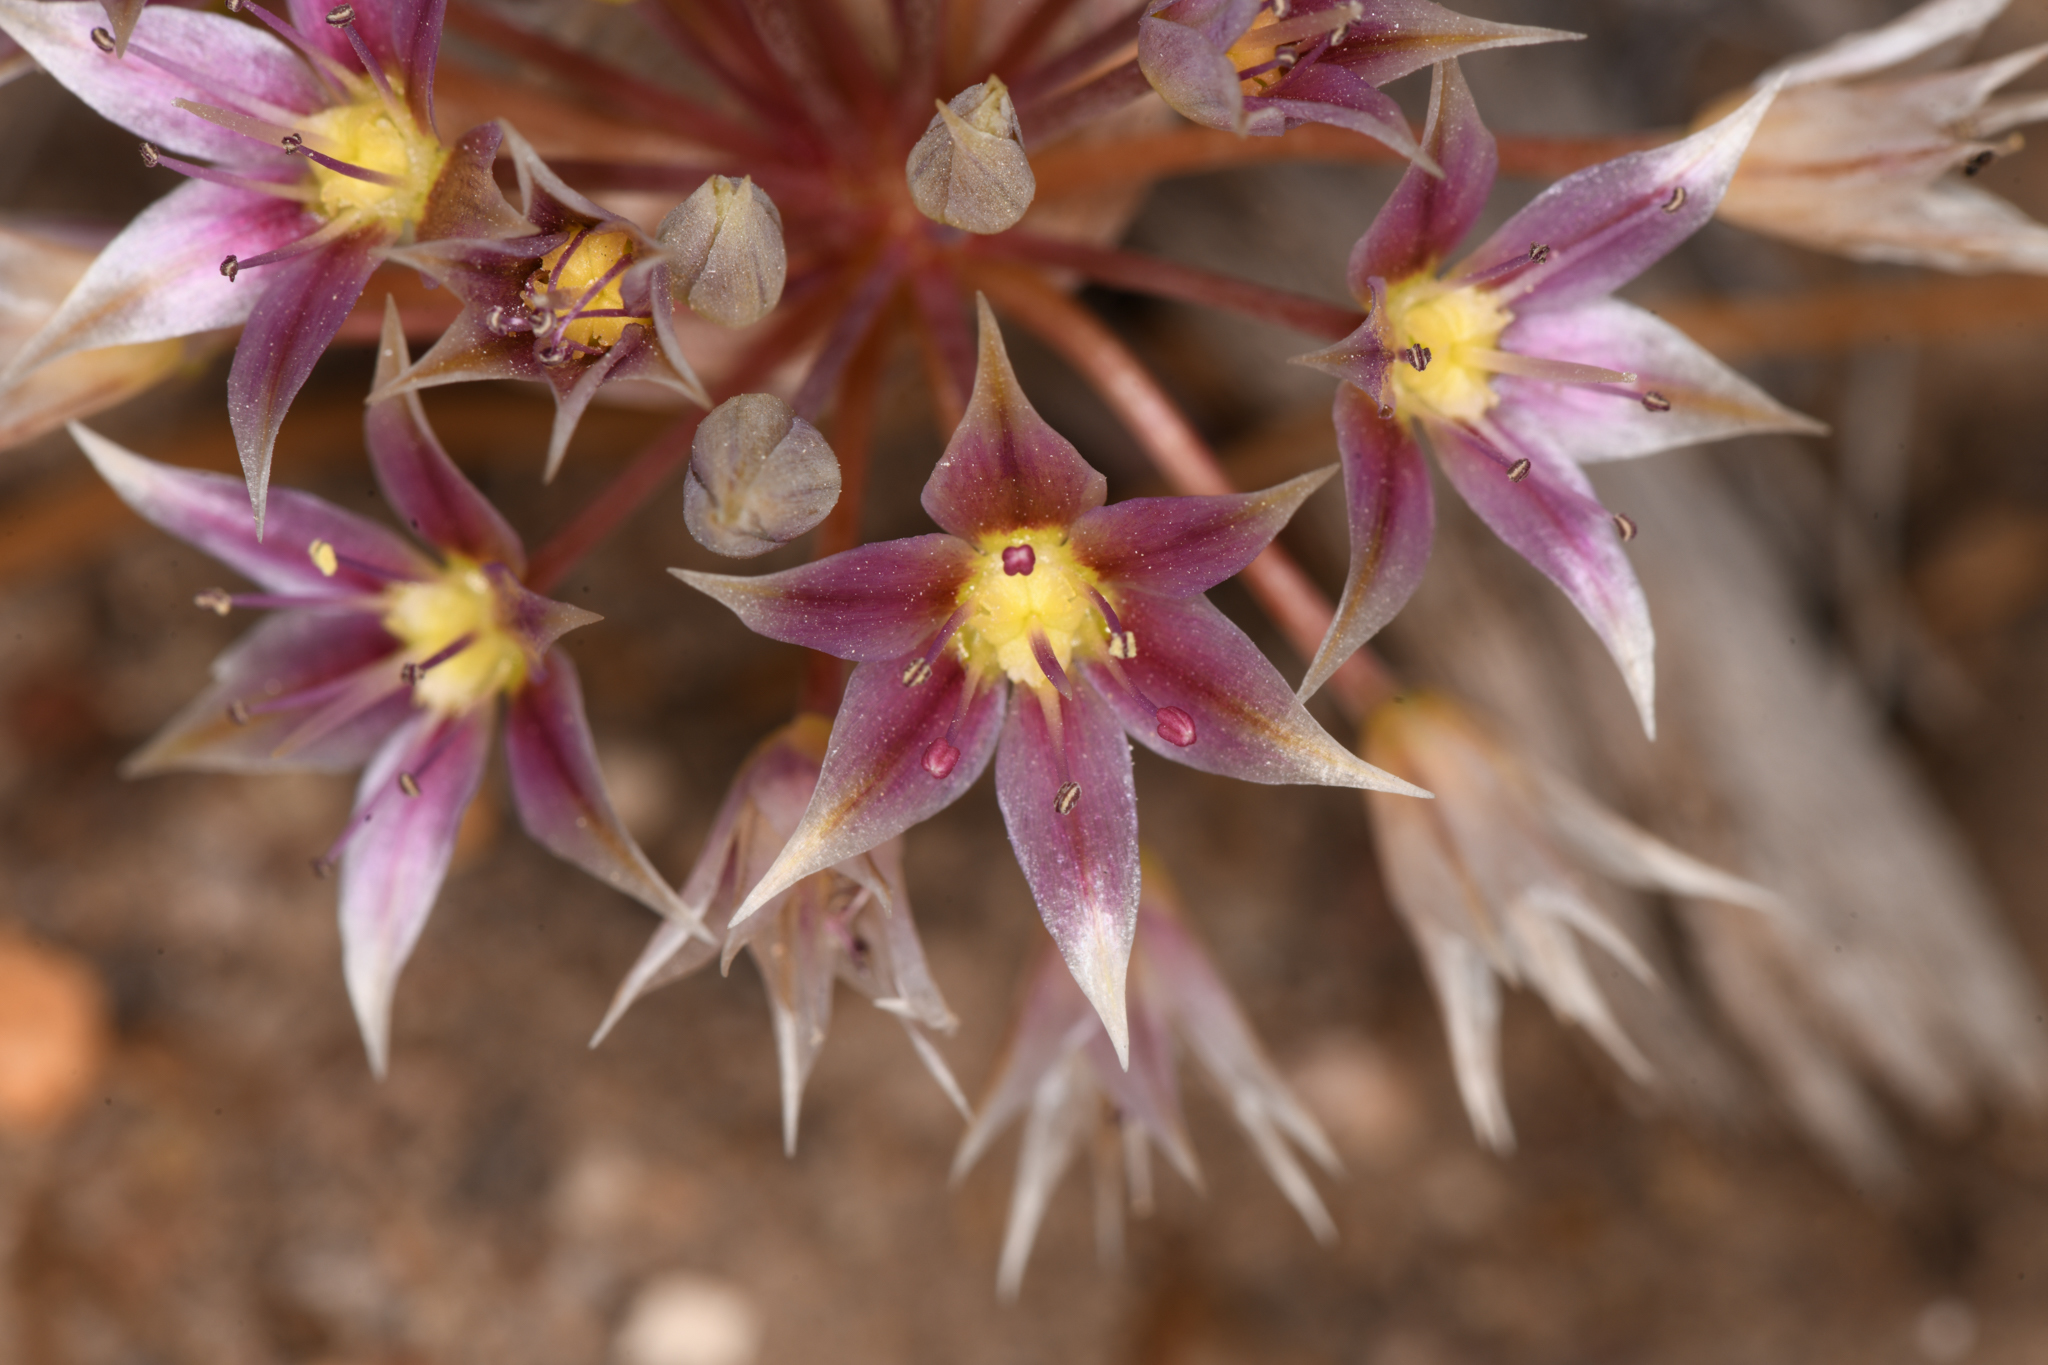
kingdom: Plantae
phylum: Tracheophyta
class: Liliopsida
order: Asparagales
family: Amaryllidaceae
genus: Allium
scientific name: Allium atrorubens
